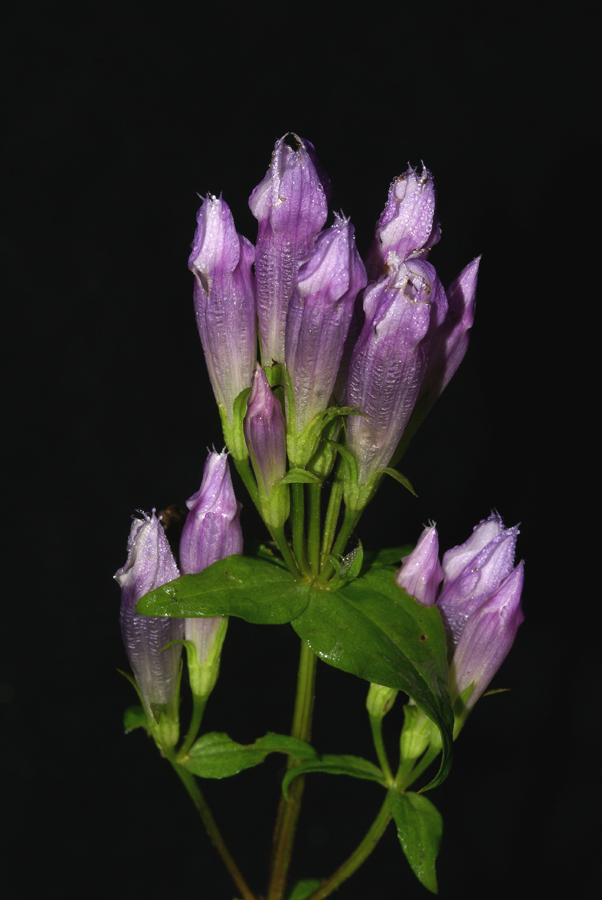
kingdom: Plantae
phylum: Tracheophyta
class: Magnoliopsida
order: Gentianales
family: Gentianaceae
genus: Gentianella
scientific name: Gentianella quinquefolia
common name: Agueweed
